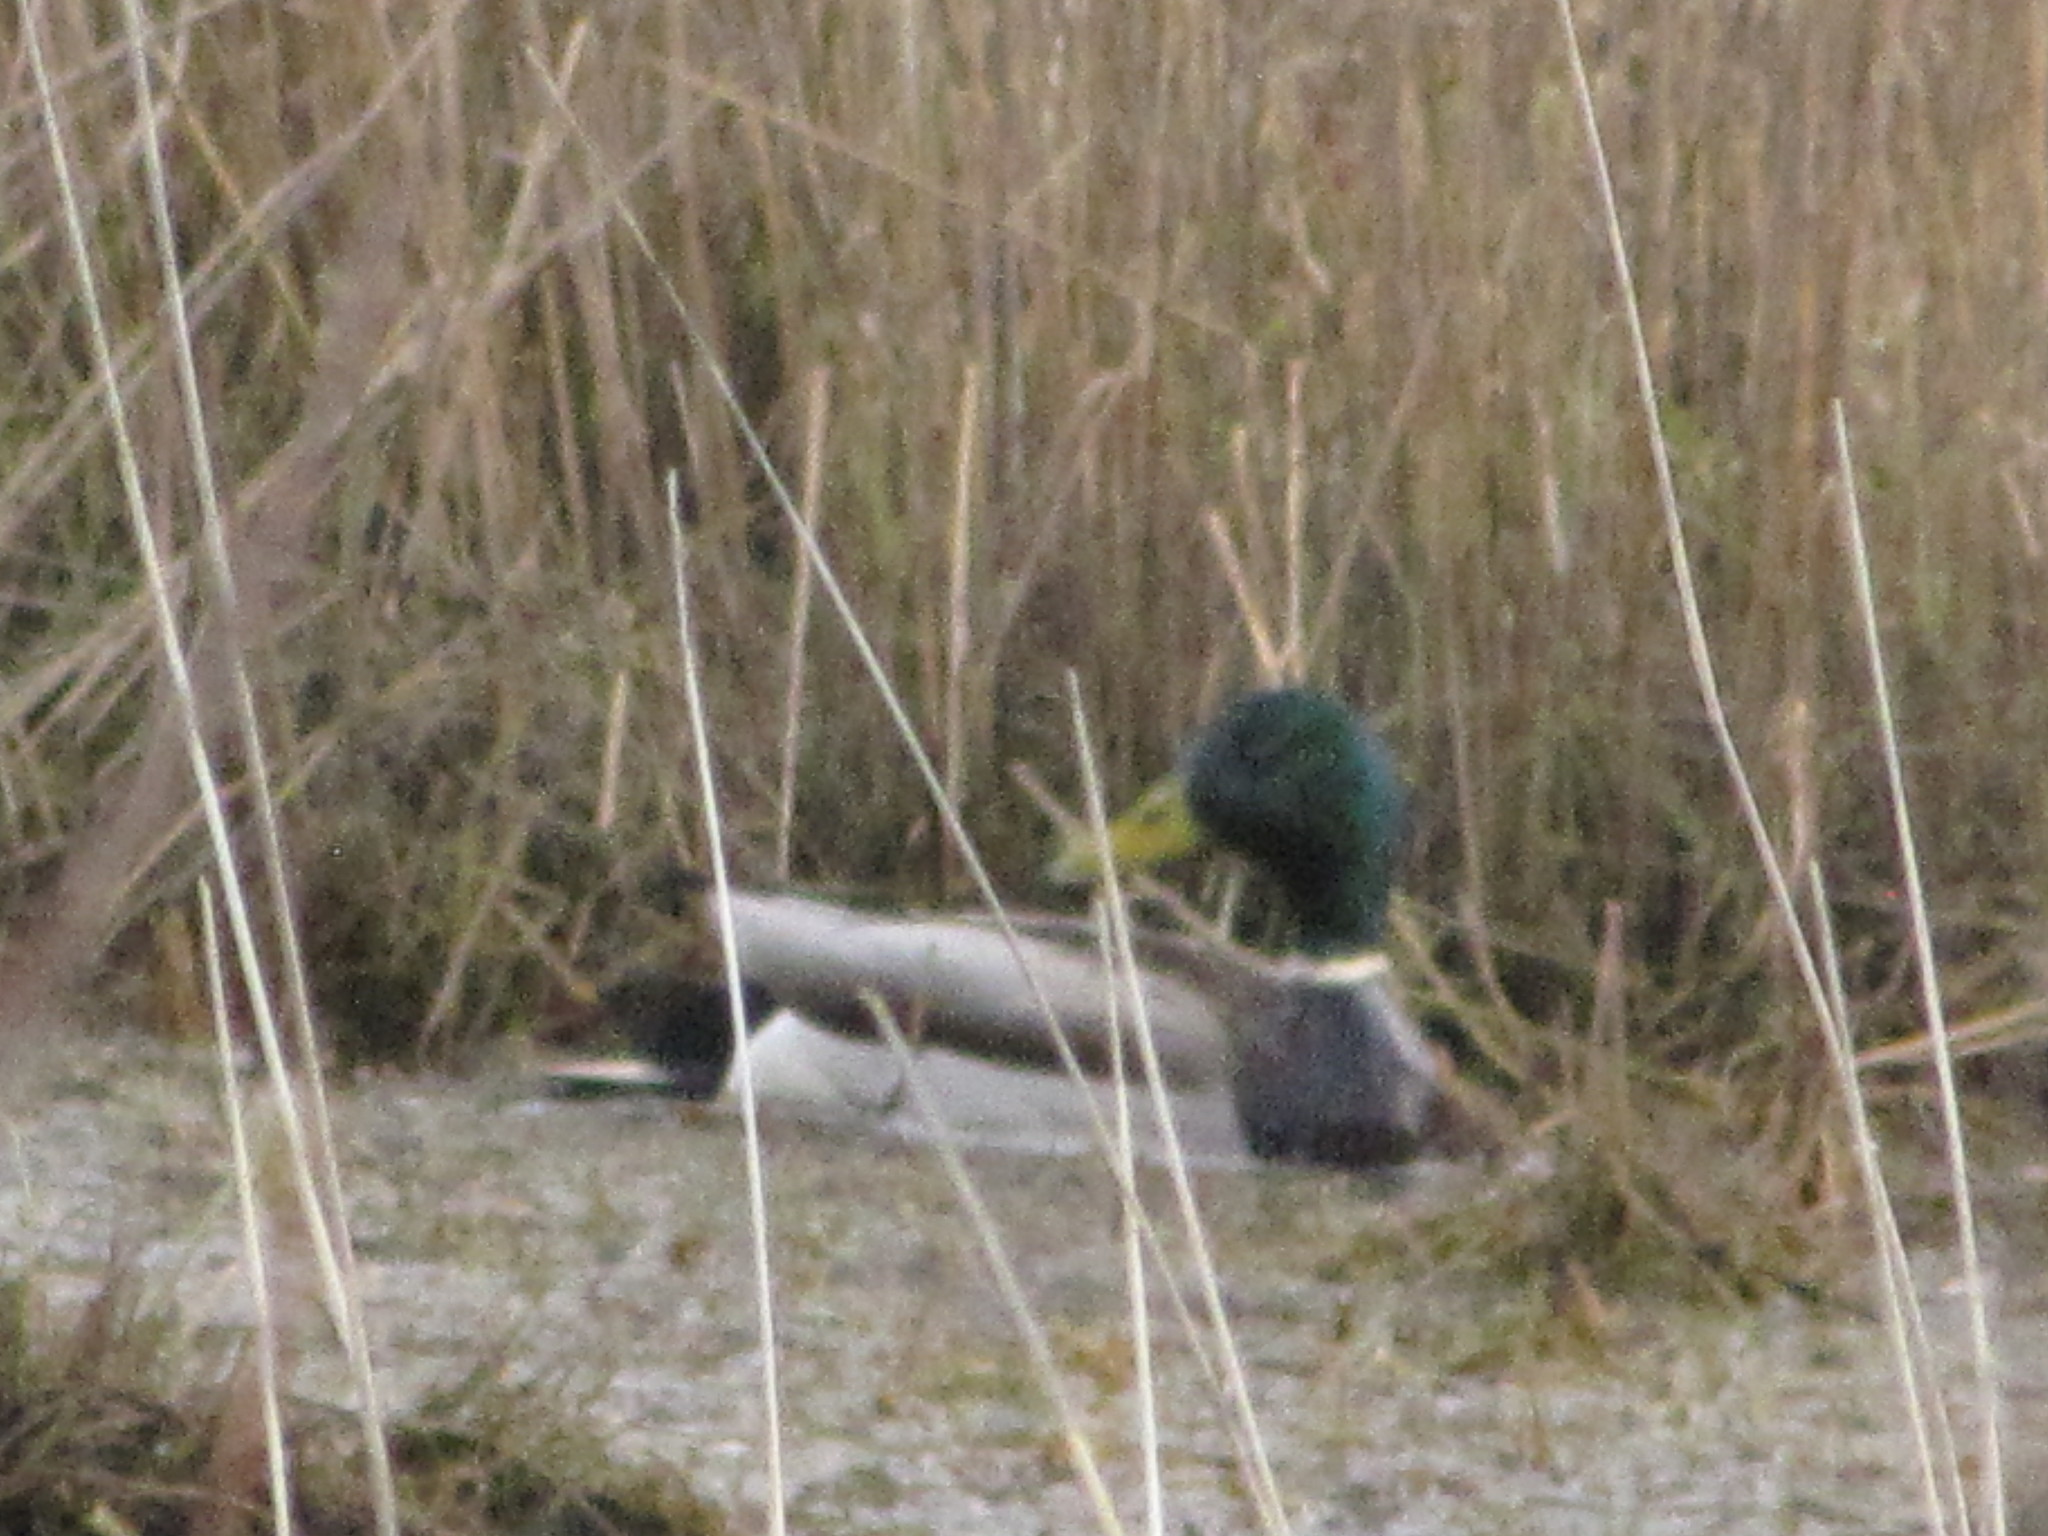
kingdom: Animalia
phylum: Chordata
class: Aves
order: Anseriformes
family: Anatidae
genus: Anas
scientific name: Anas platyrhynchos
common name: Mallard
